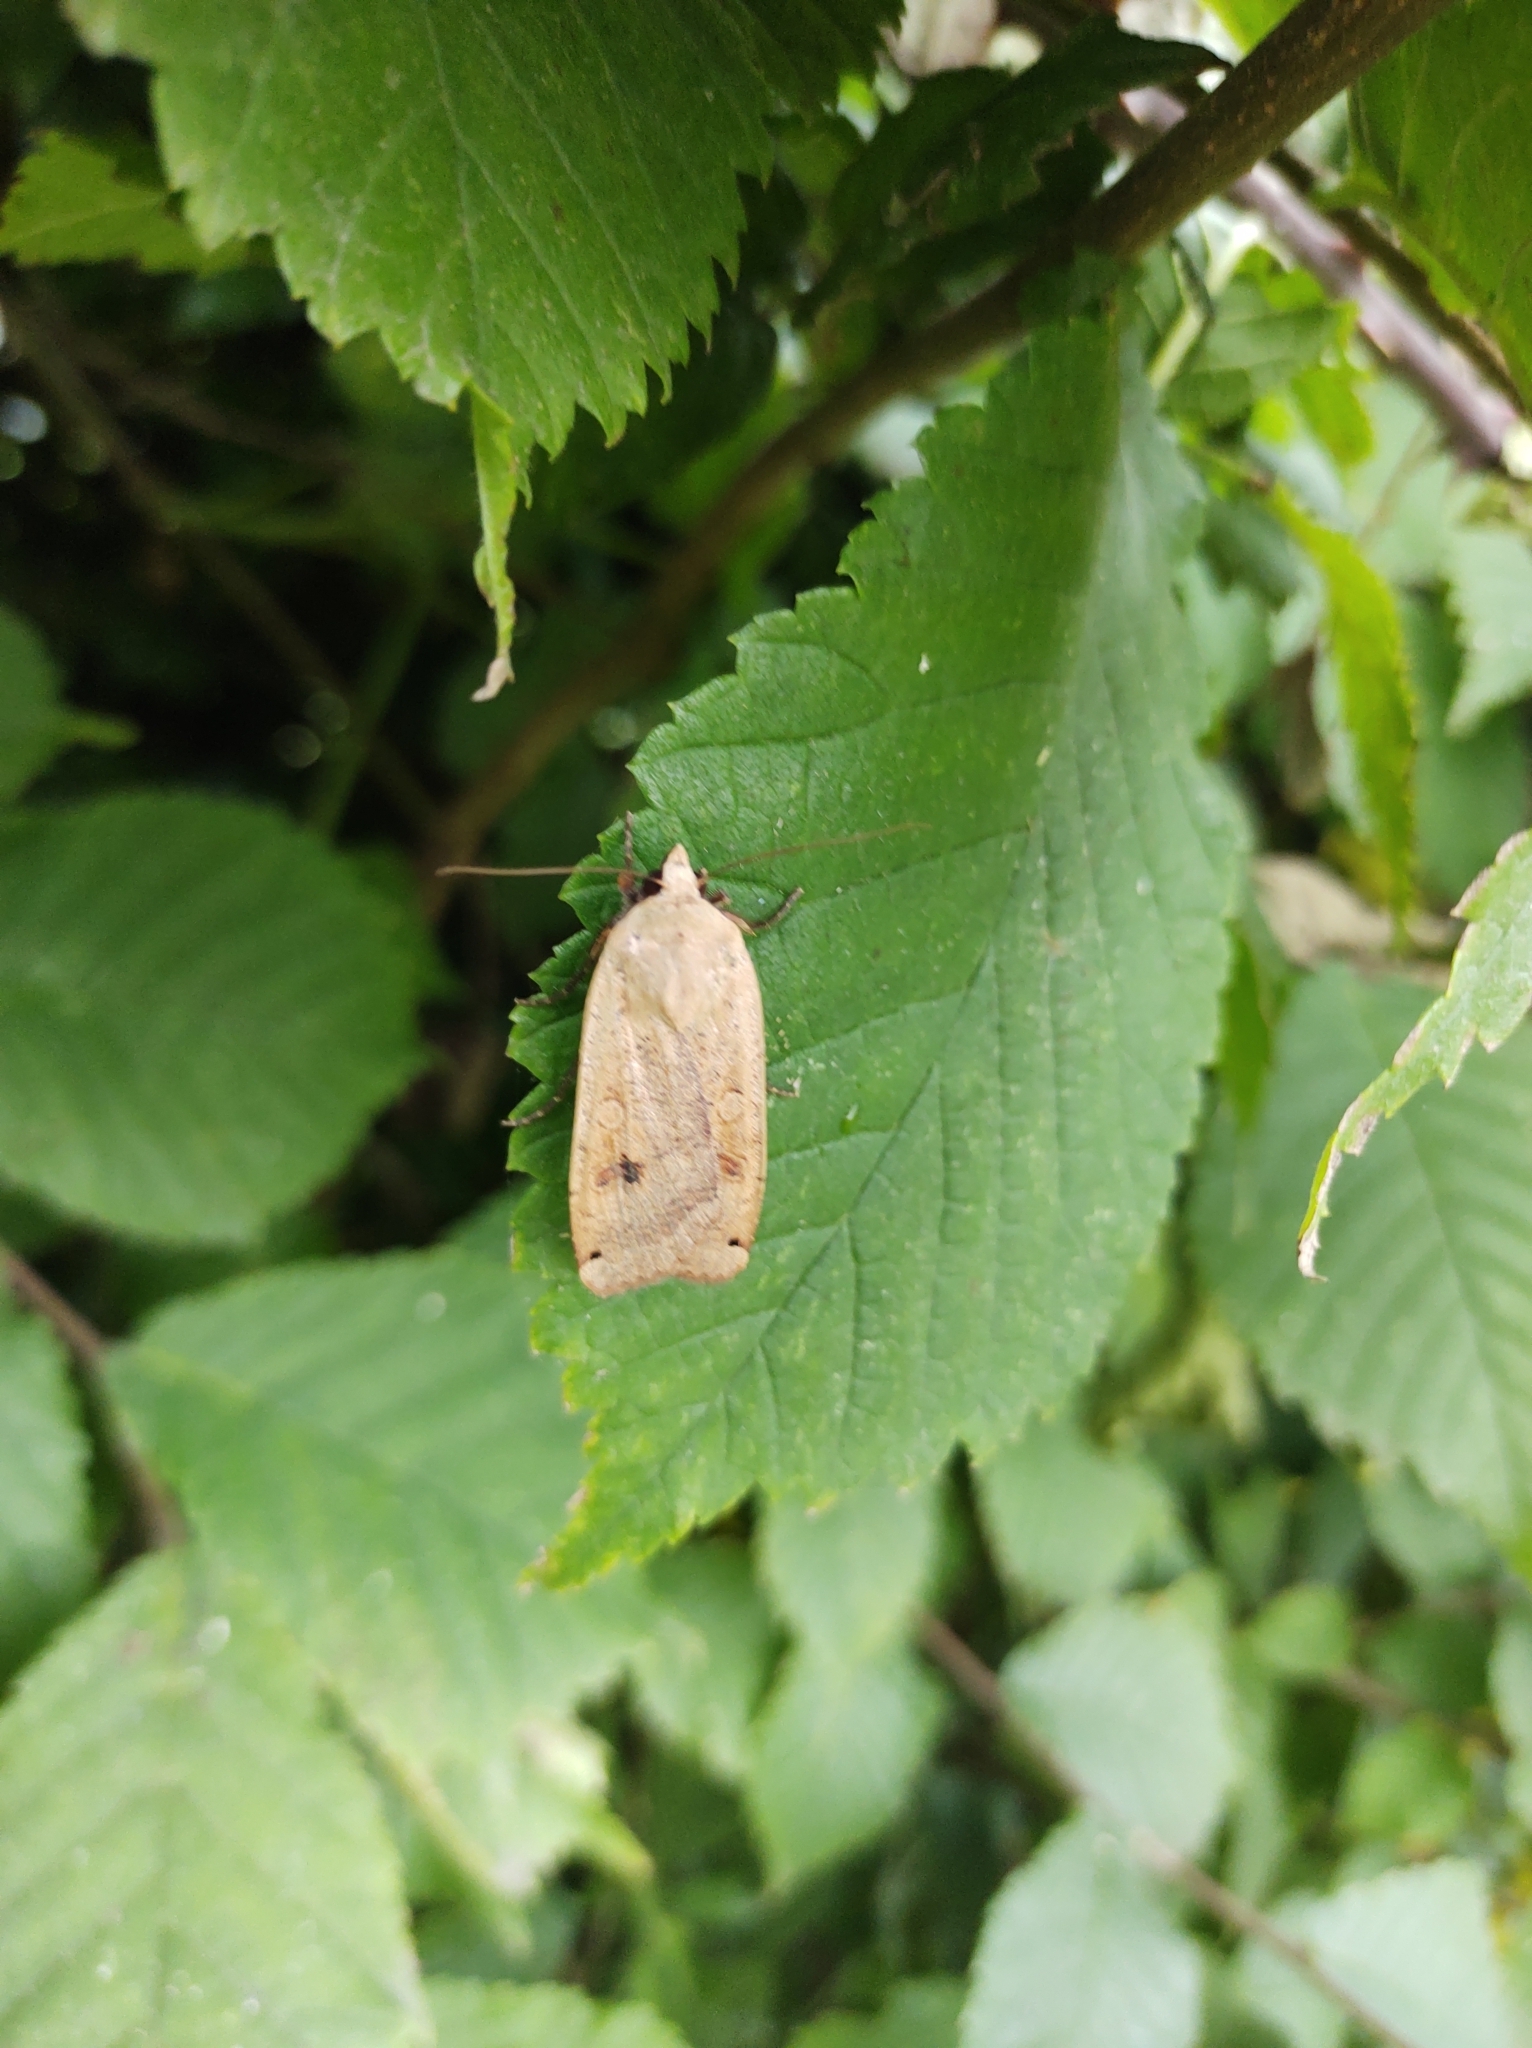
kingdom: Animalia
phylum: Arthropoda
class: Insecta
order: Lepidoptera
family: Noctuidae
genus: Noctua
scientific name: Noctua pronuba
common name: Large yellow underwing
